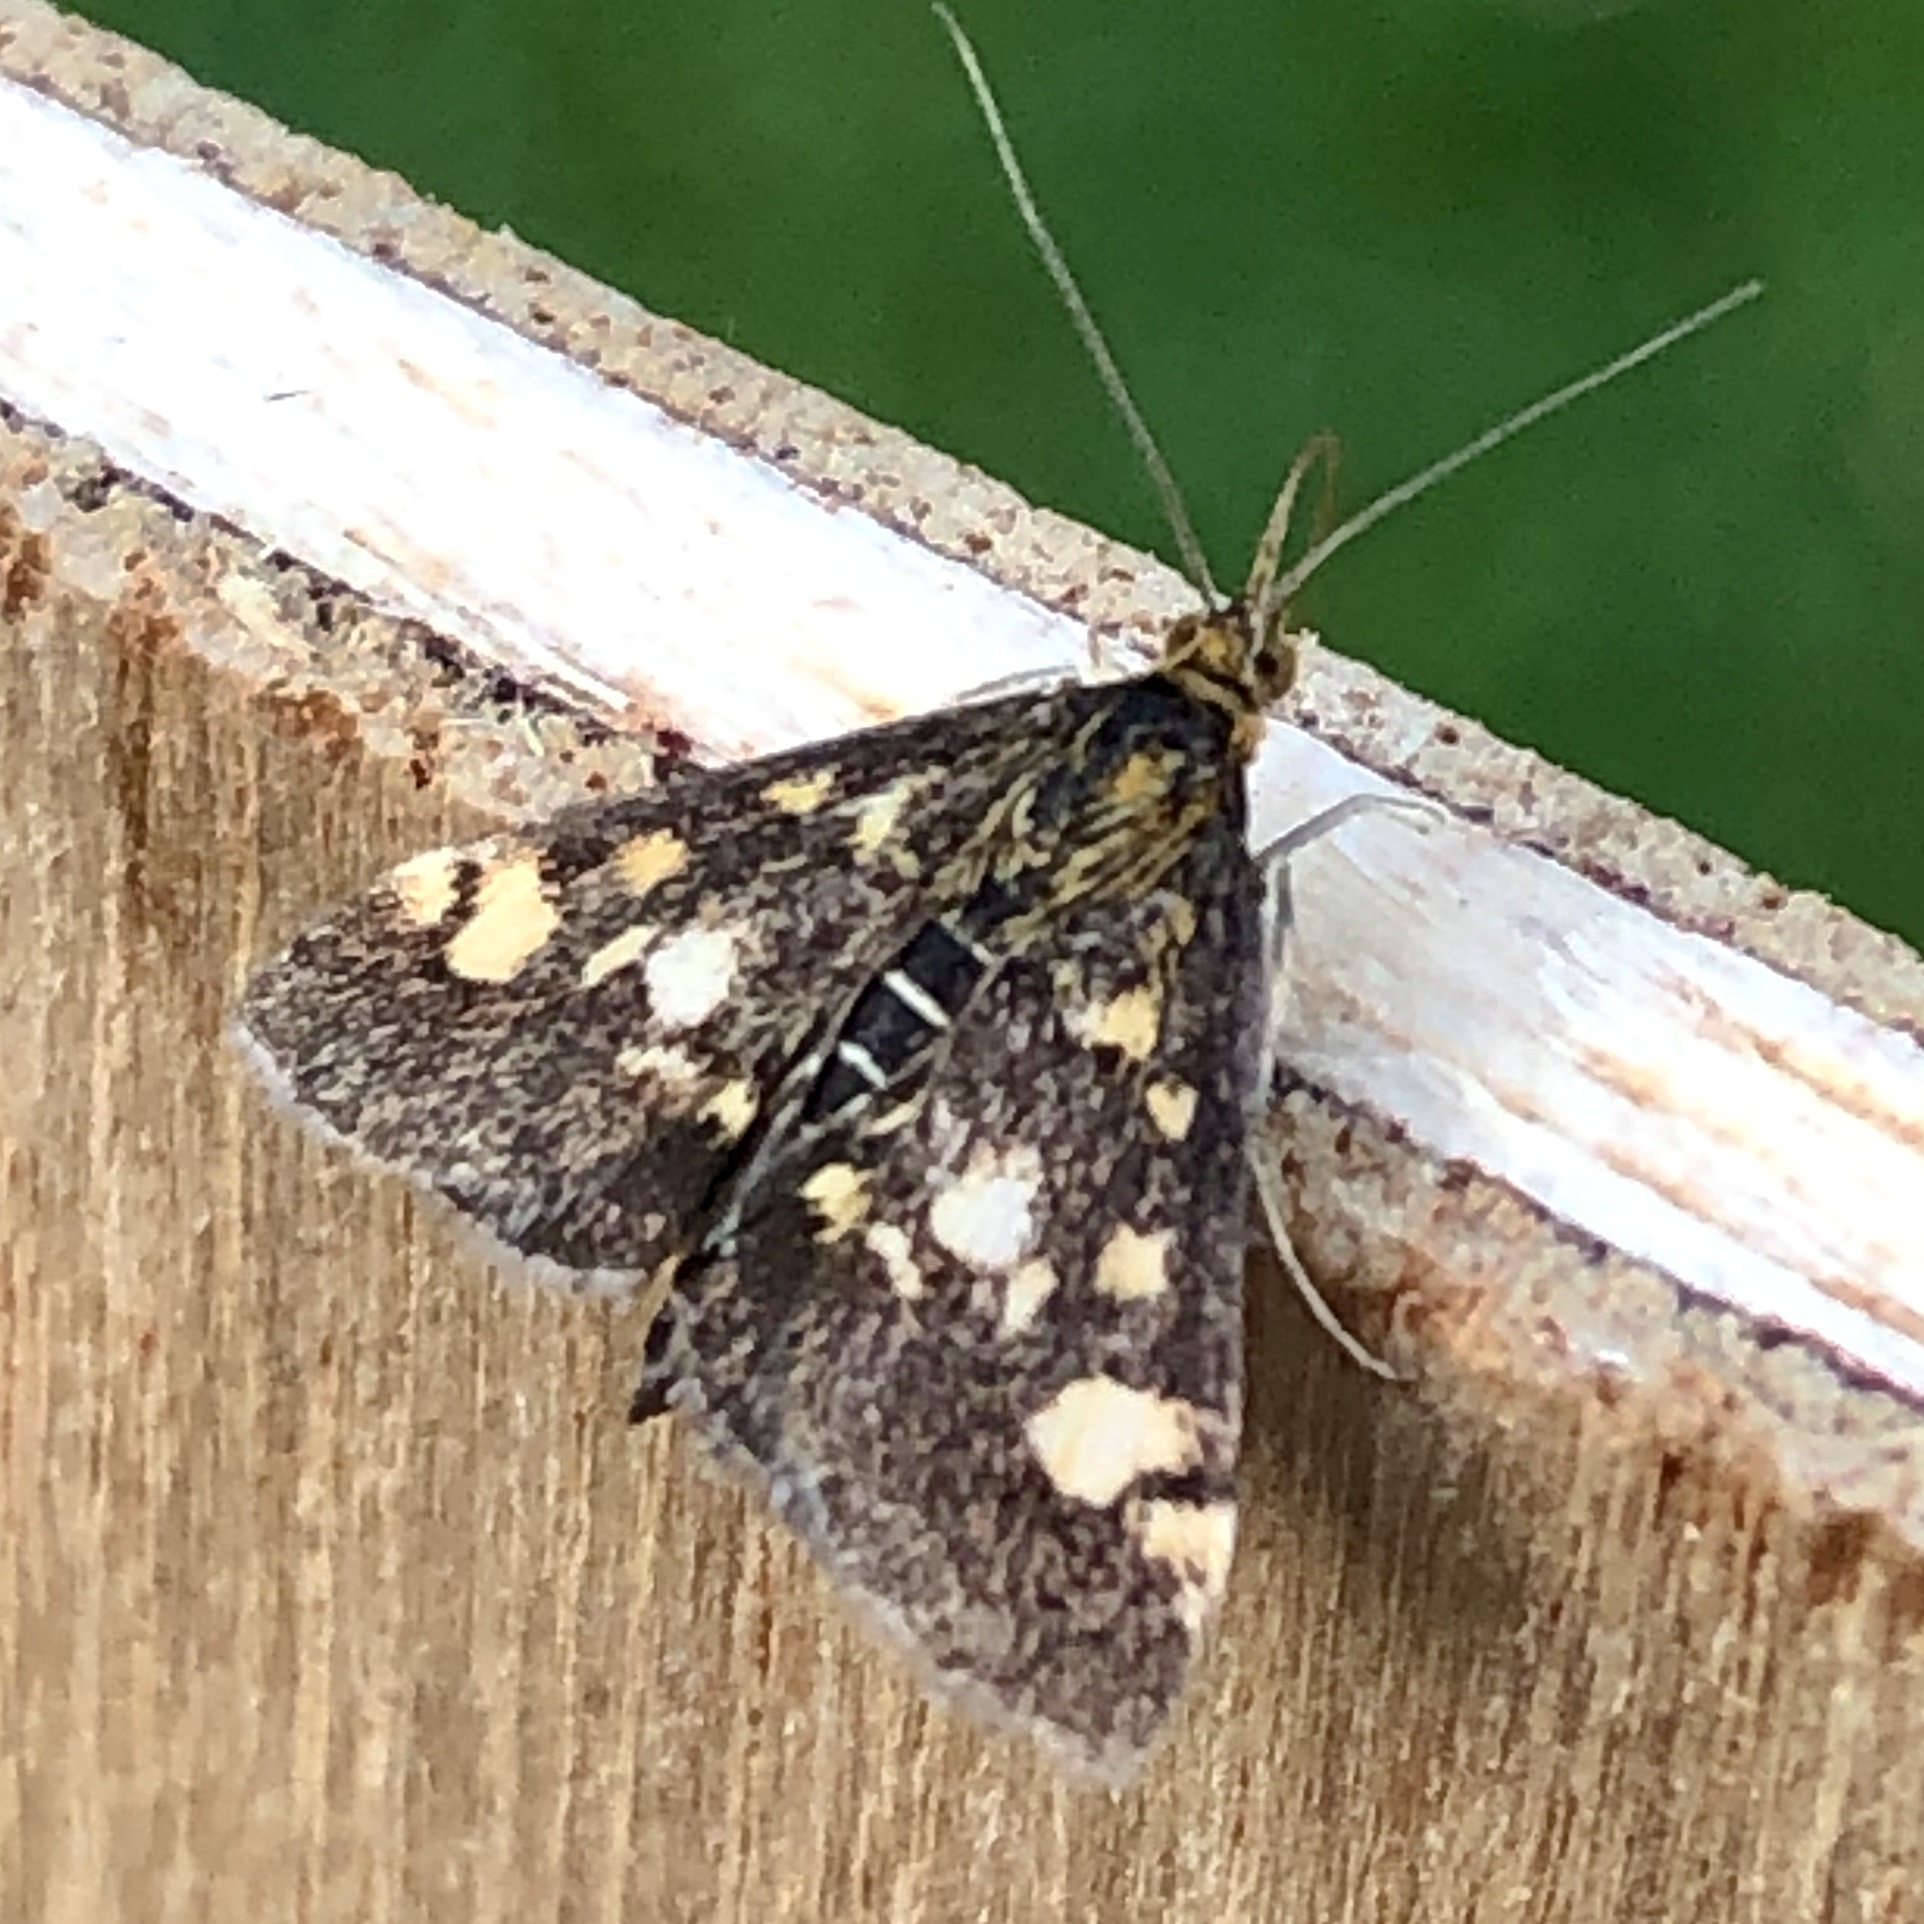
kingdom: Animalia
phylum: Arthropoda
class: Insecta
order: Lepidoptera
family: Crambidae
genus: Pyrausta
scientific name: Pyrausta aurata
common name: Small purple & gold
